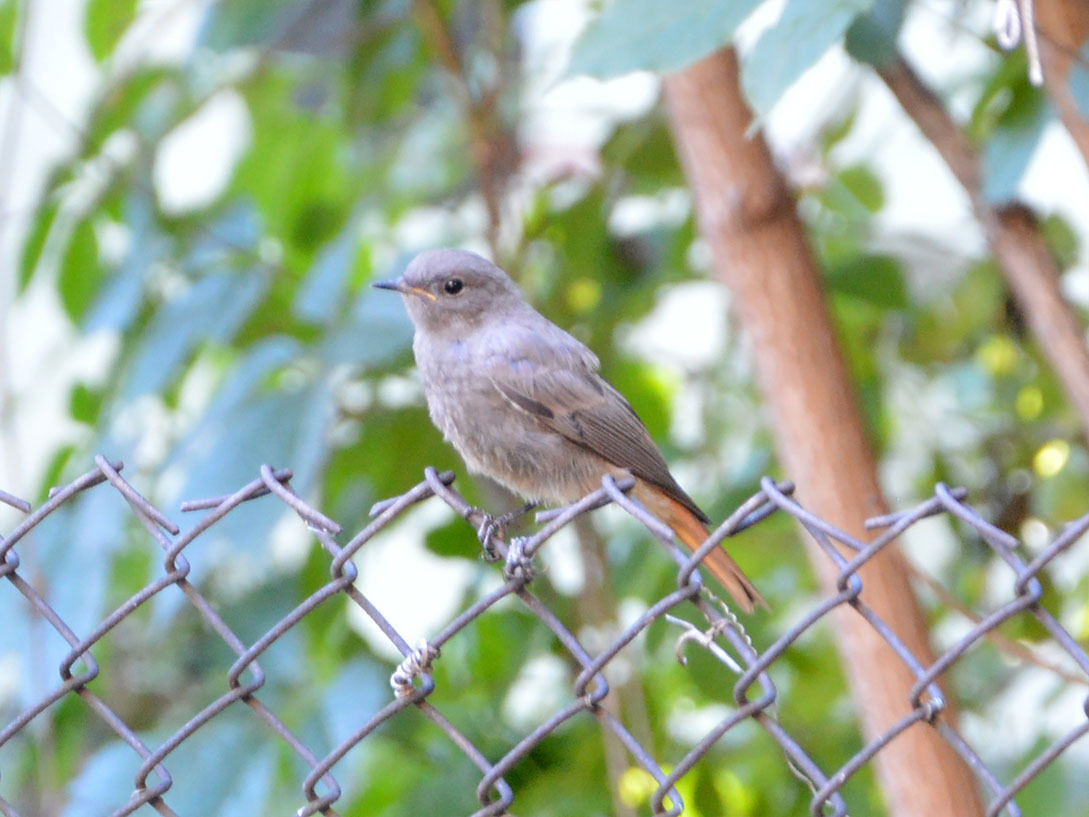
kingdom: Animalia
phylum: Chordata
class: Aves
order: Passeriformes
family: Muscicapidae
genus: Phoenicurus
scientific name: Phoenicurus ochruros
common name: Black redstart
